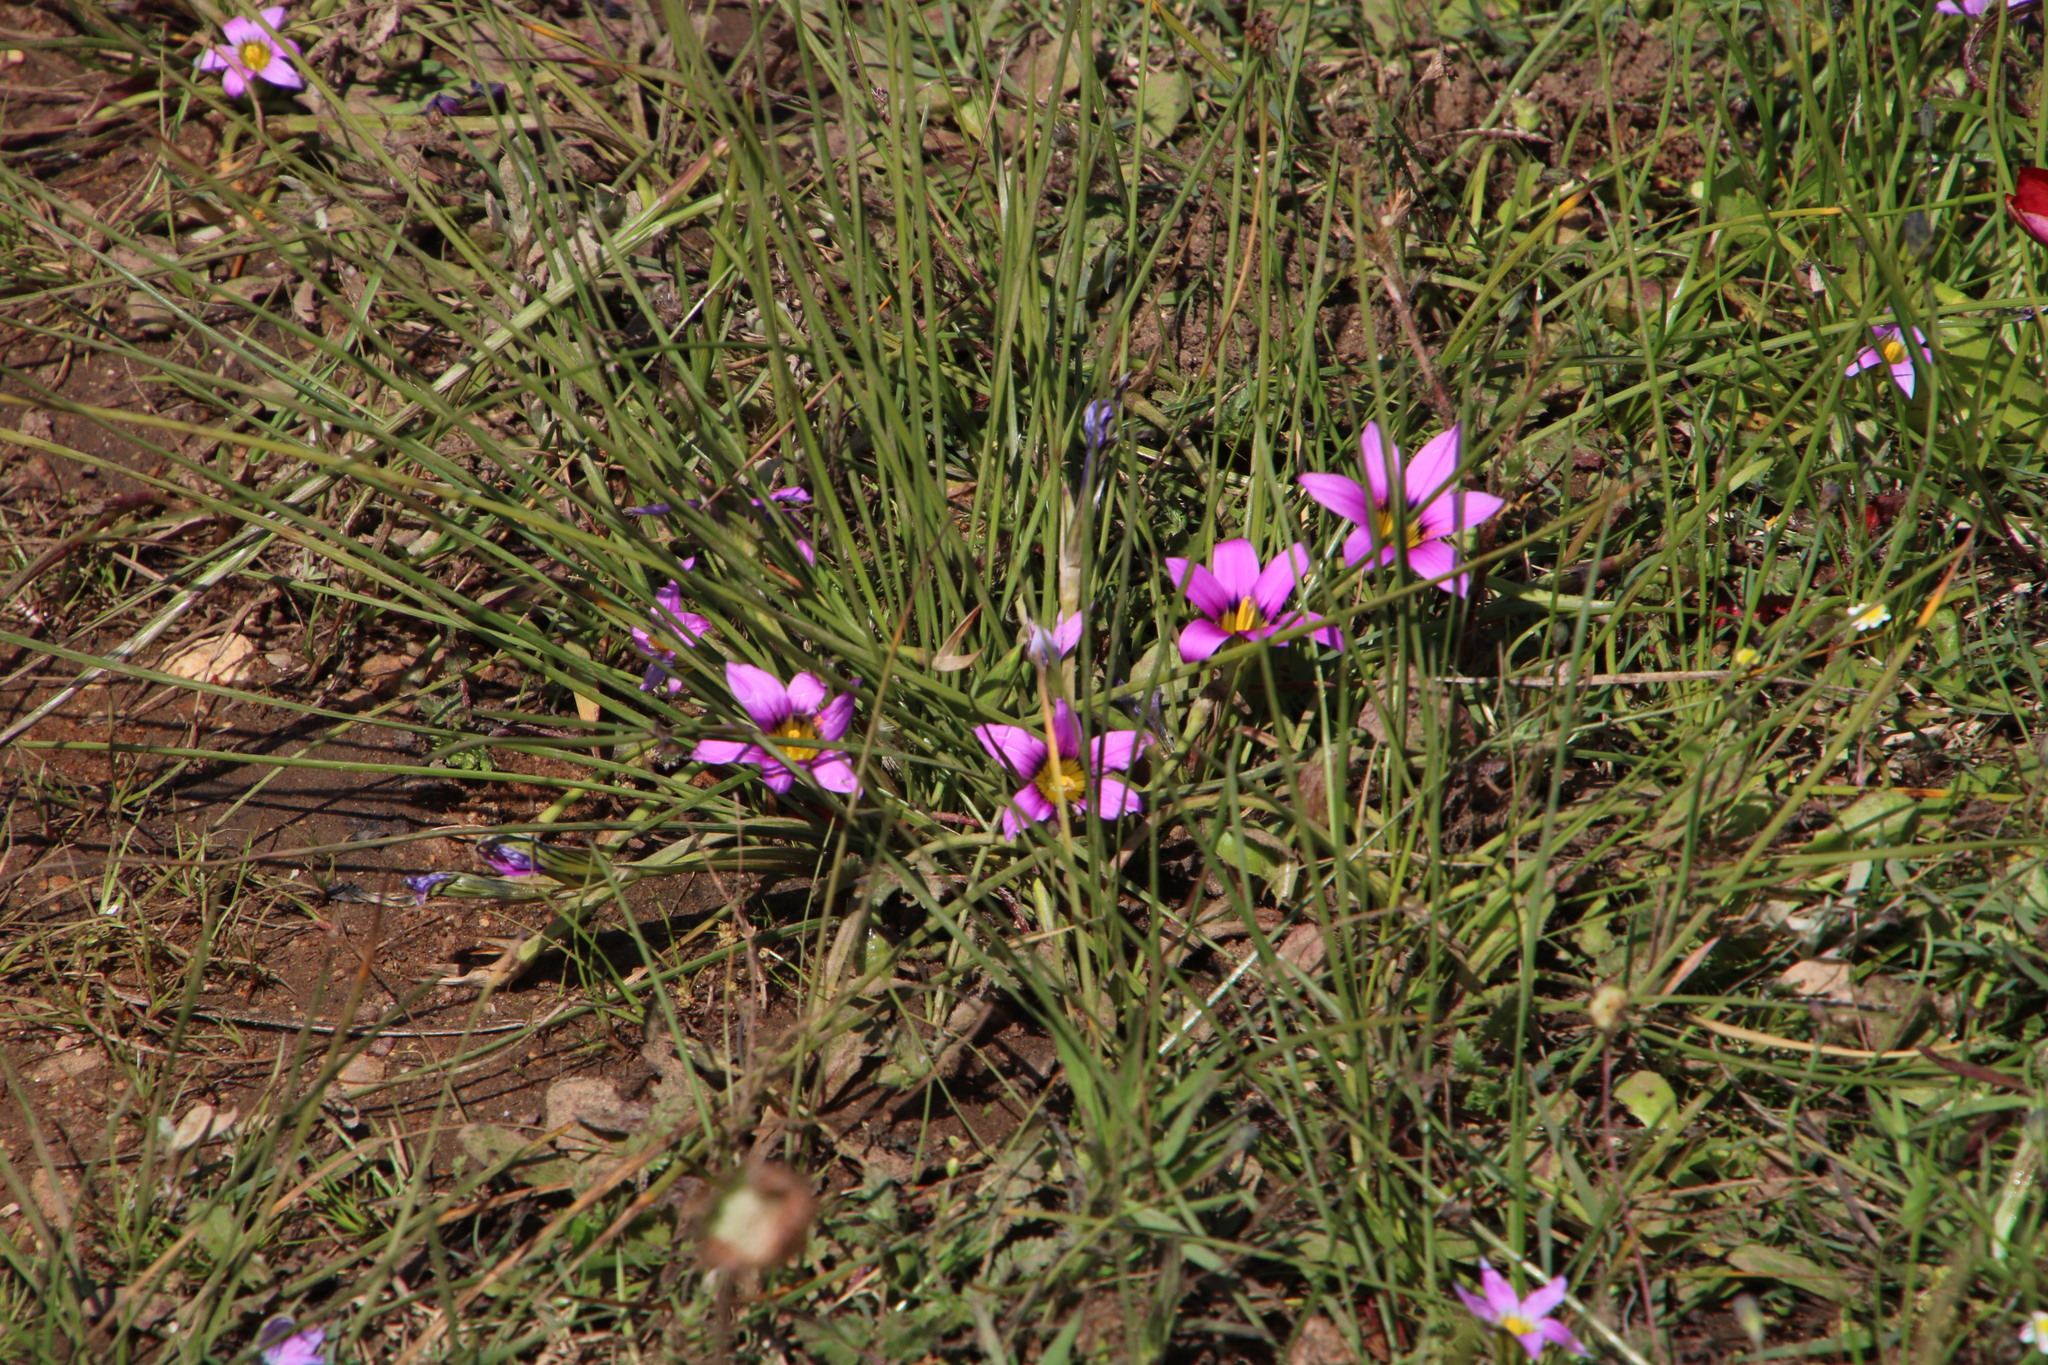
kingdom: Plantae
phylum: Tracheophyta
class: Liliopsida
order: Asparagales
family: Iridaceae
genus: Romulea
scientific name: Romulea rosea
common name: Oniongrass
